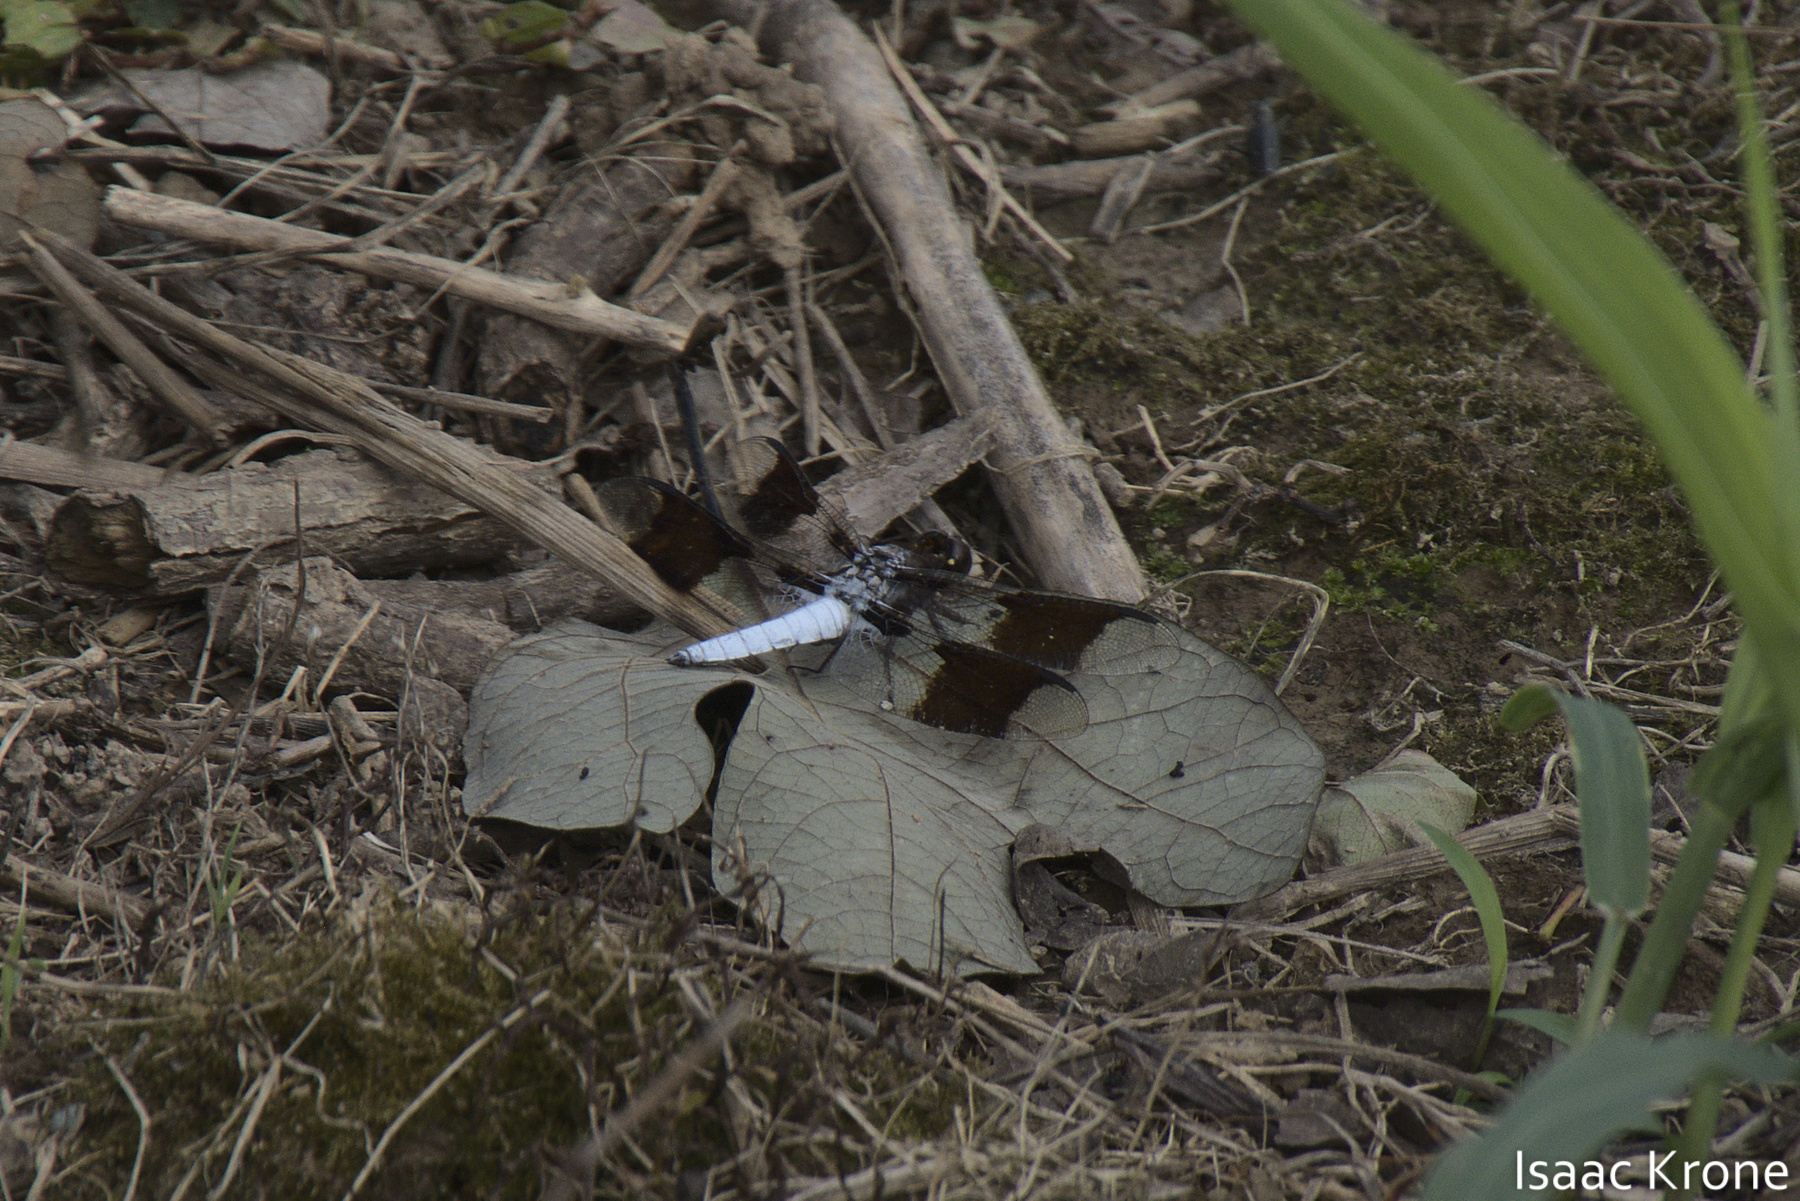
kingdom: Animalia
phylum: Arthropoda
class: Insecta
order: Odonata
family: Libellulidae
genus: Plathemis
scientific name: Plathemis lydia
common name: Common whitetail
